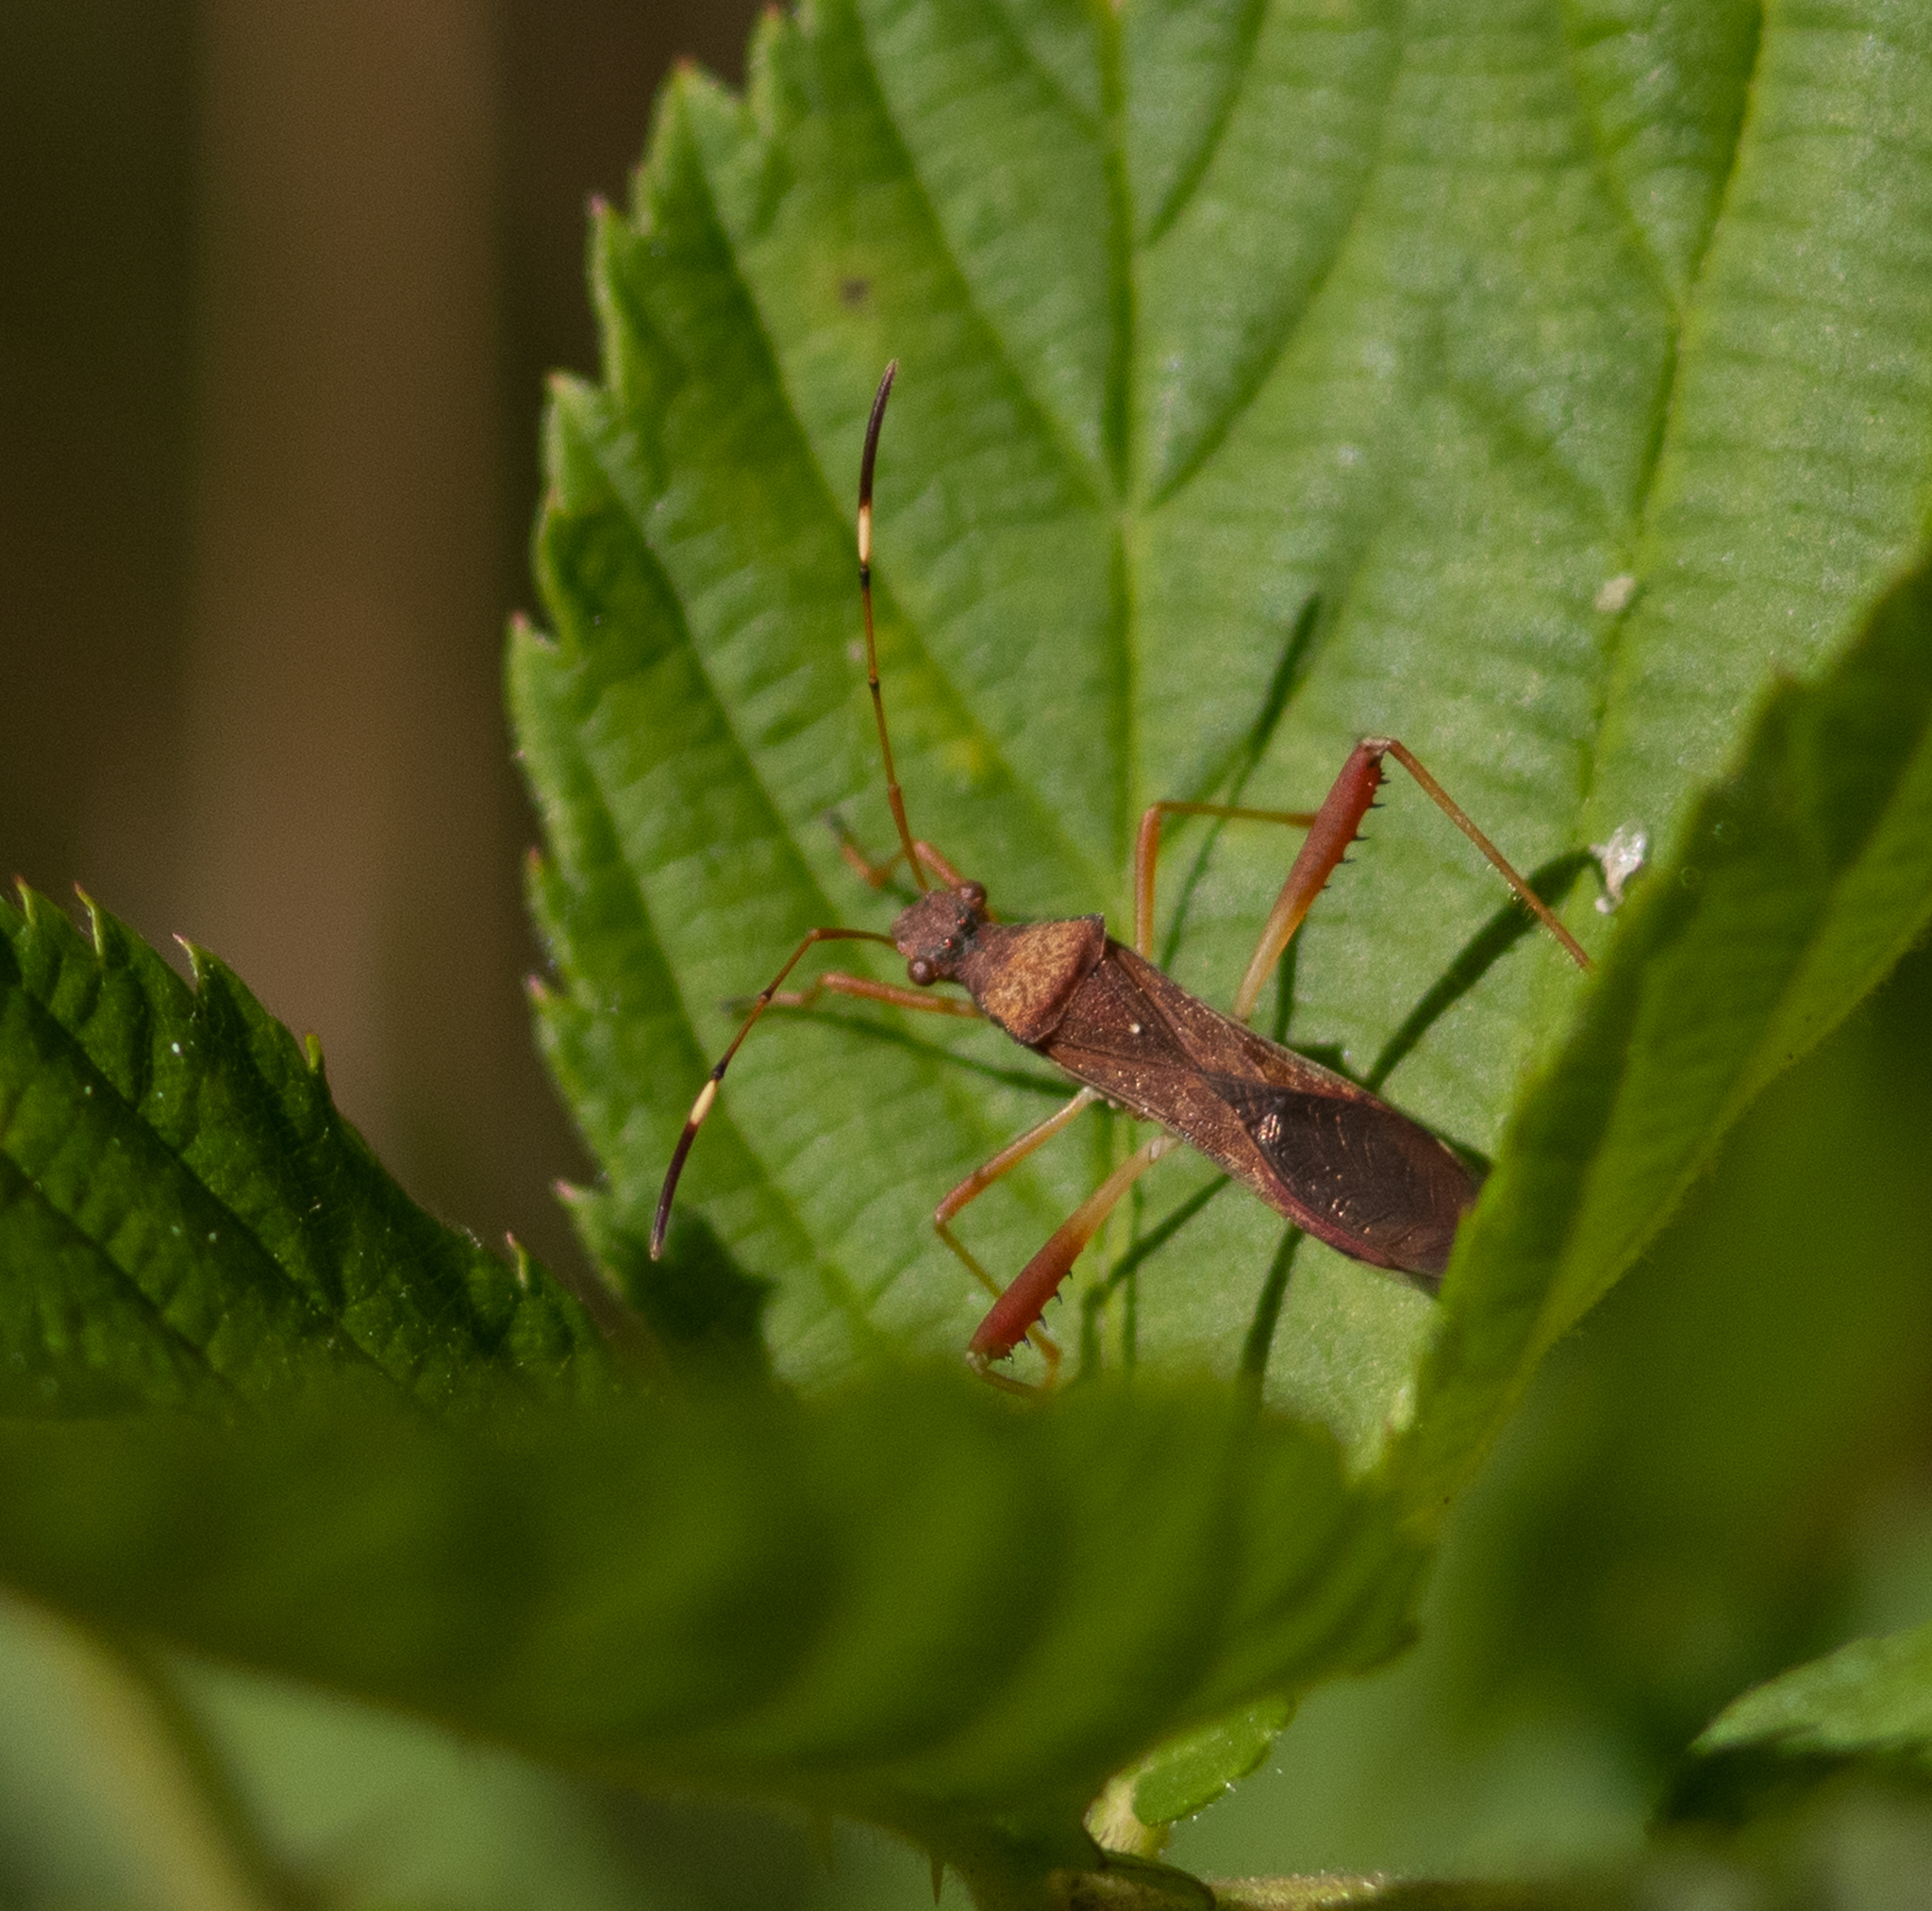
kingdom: Animalia
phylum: Arthropoda
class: Insecta
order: Hemiptera
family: Alydidae
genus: Megalotomus
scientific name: Megalotomus quinquespinosus
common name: Lupine bug
